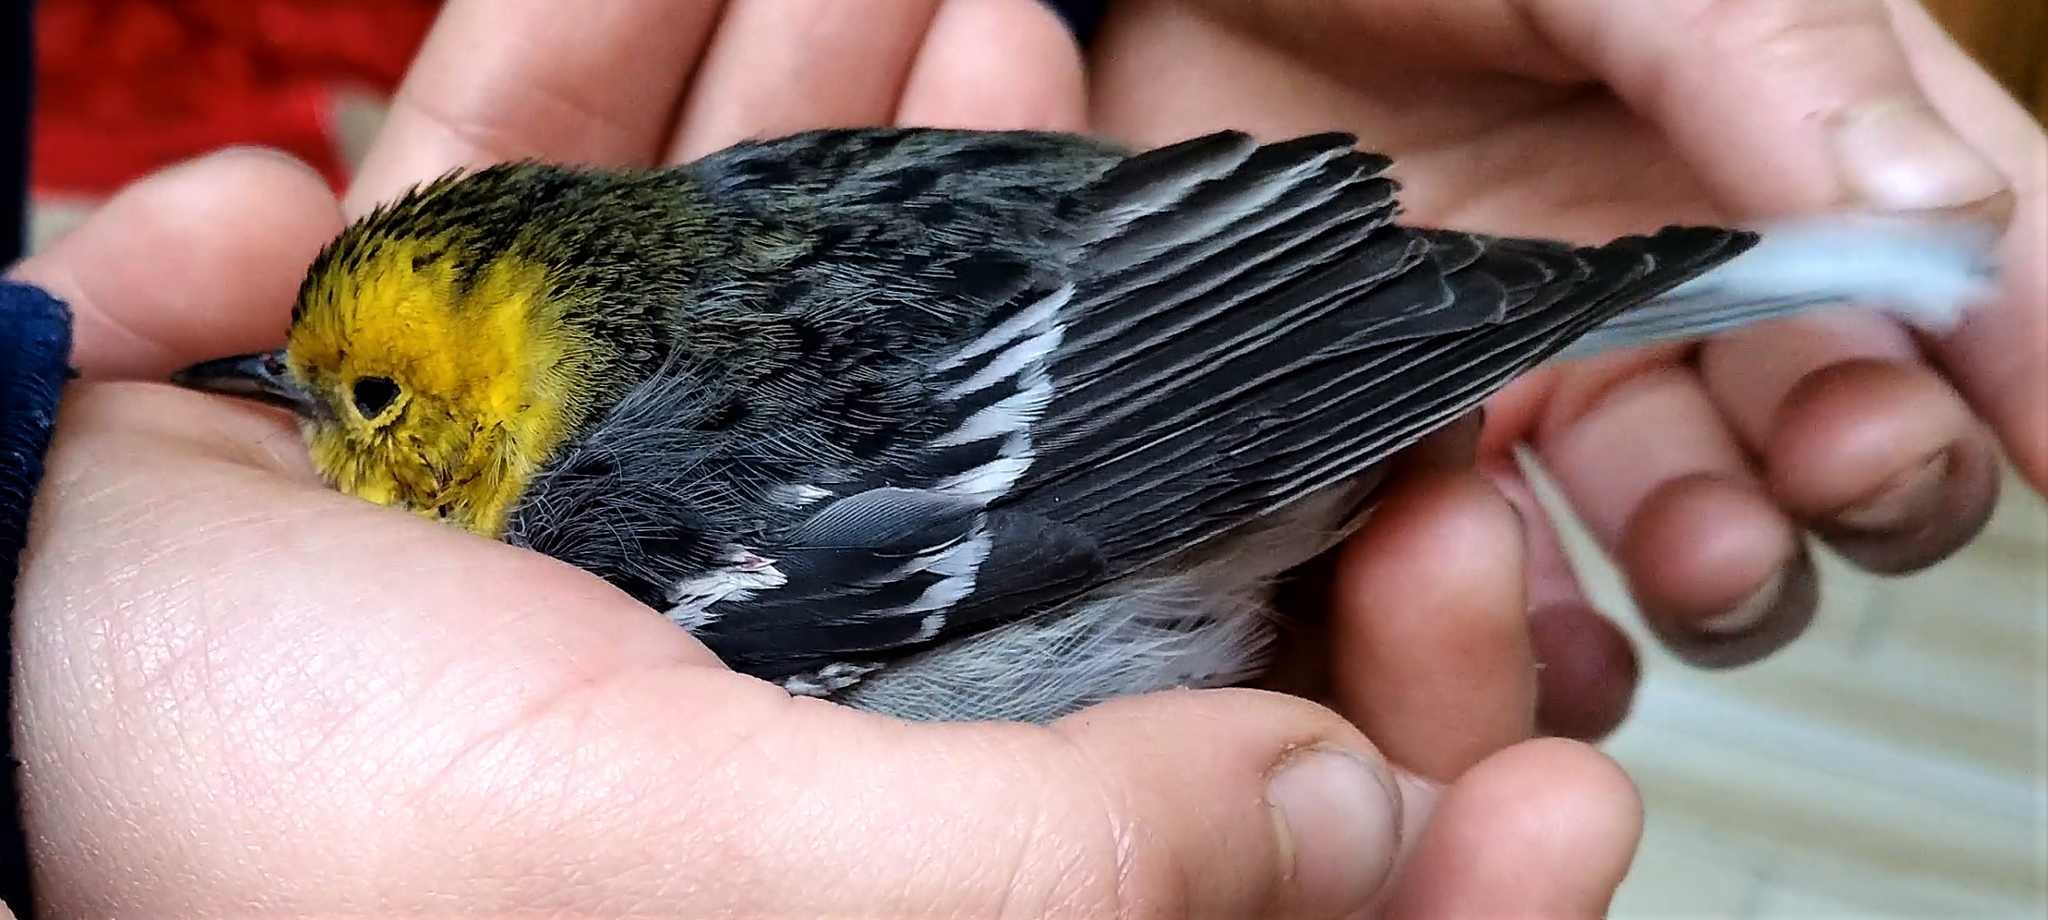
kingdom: Animalia
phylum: Chordata
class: Aves
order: Passeriformes
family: Parulidae
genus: Setophaga
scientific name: Setophaga occidentalis
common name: Hermit warbler
